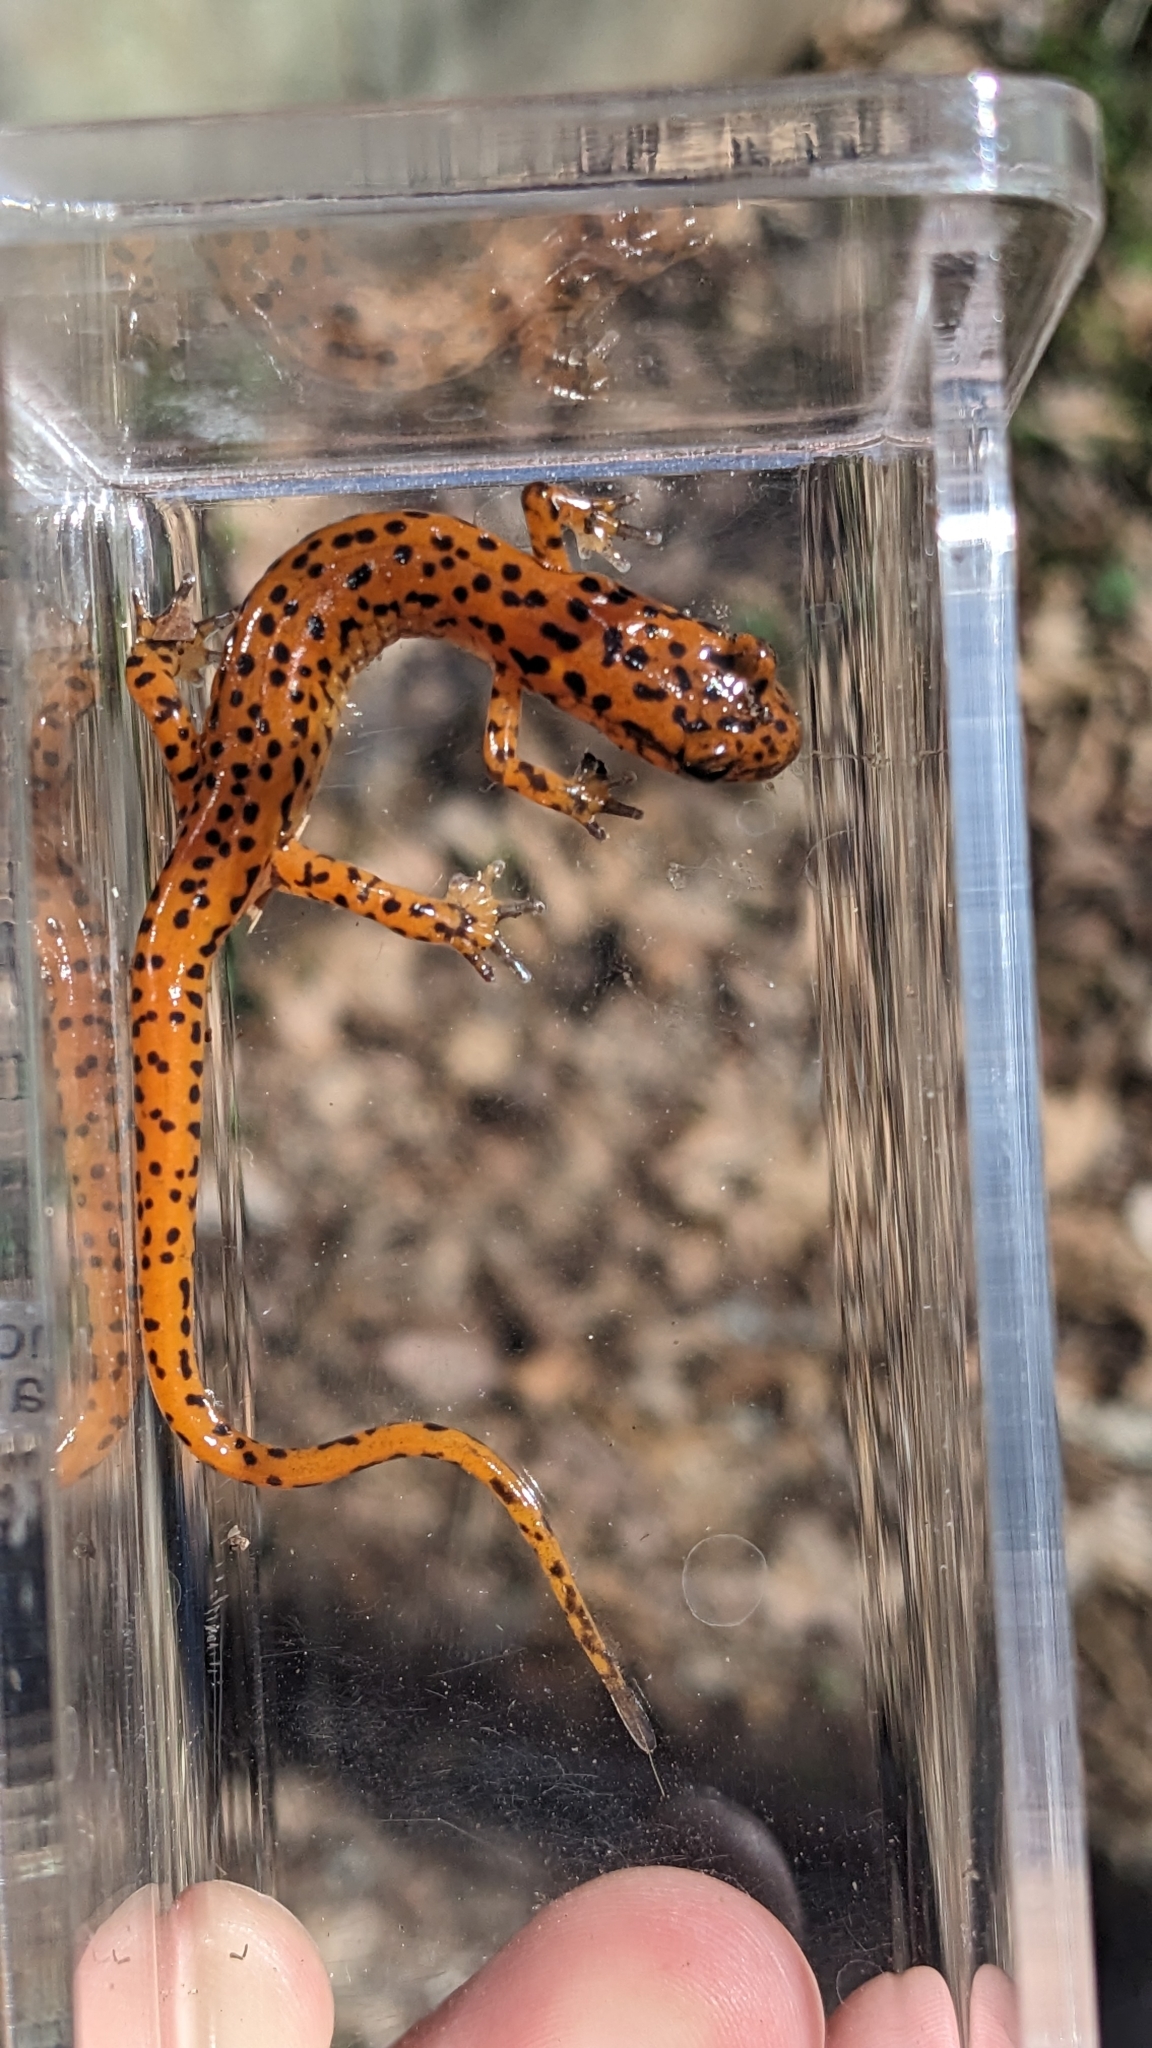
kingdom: Animalia
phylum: Chordata
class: Amphibia
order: Caudata
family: Plethodontidae
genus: Eurycea
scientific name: Eurycea lucifuga
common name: Cave salamander
